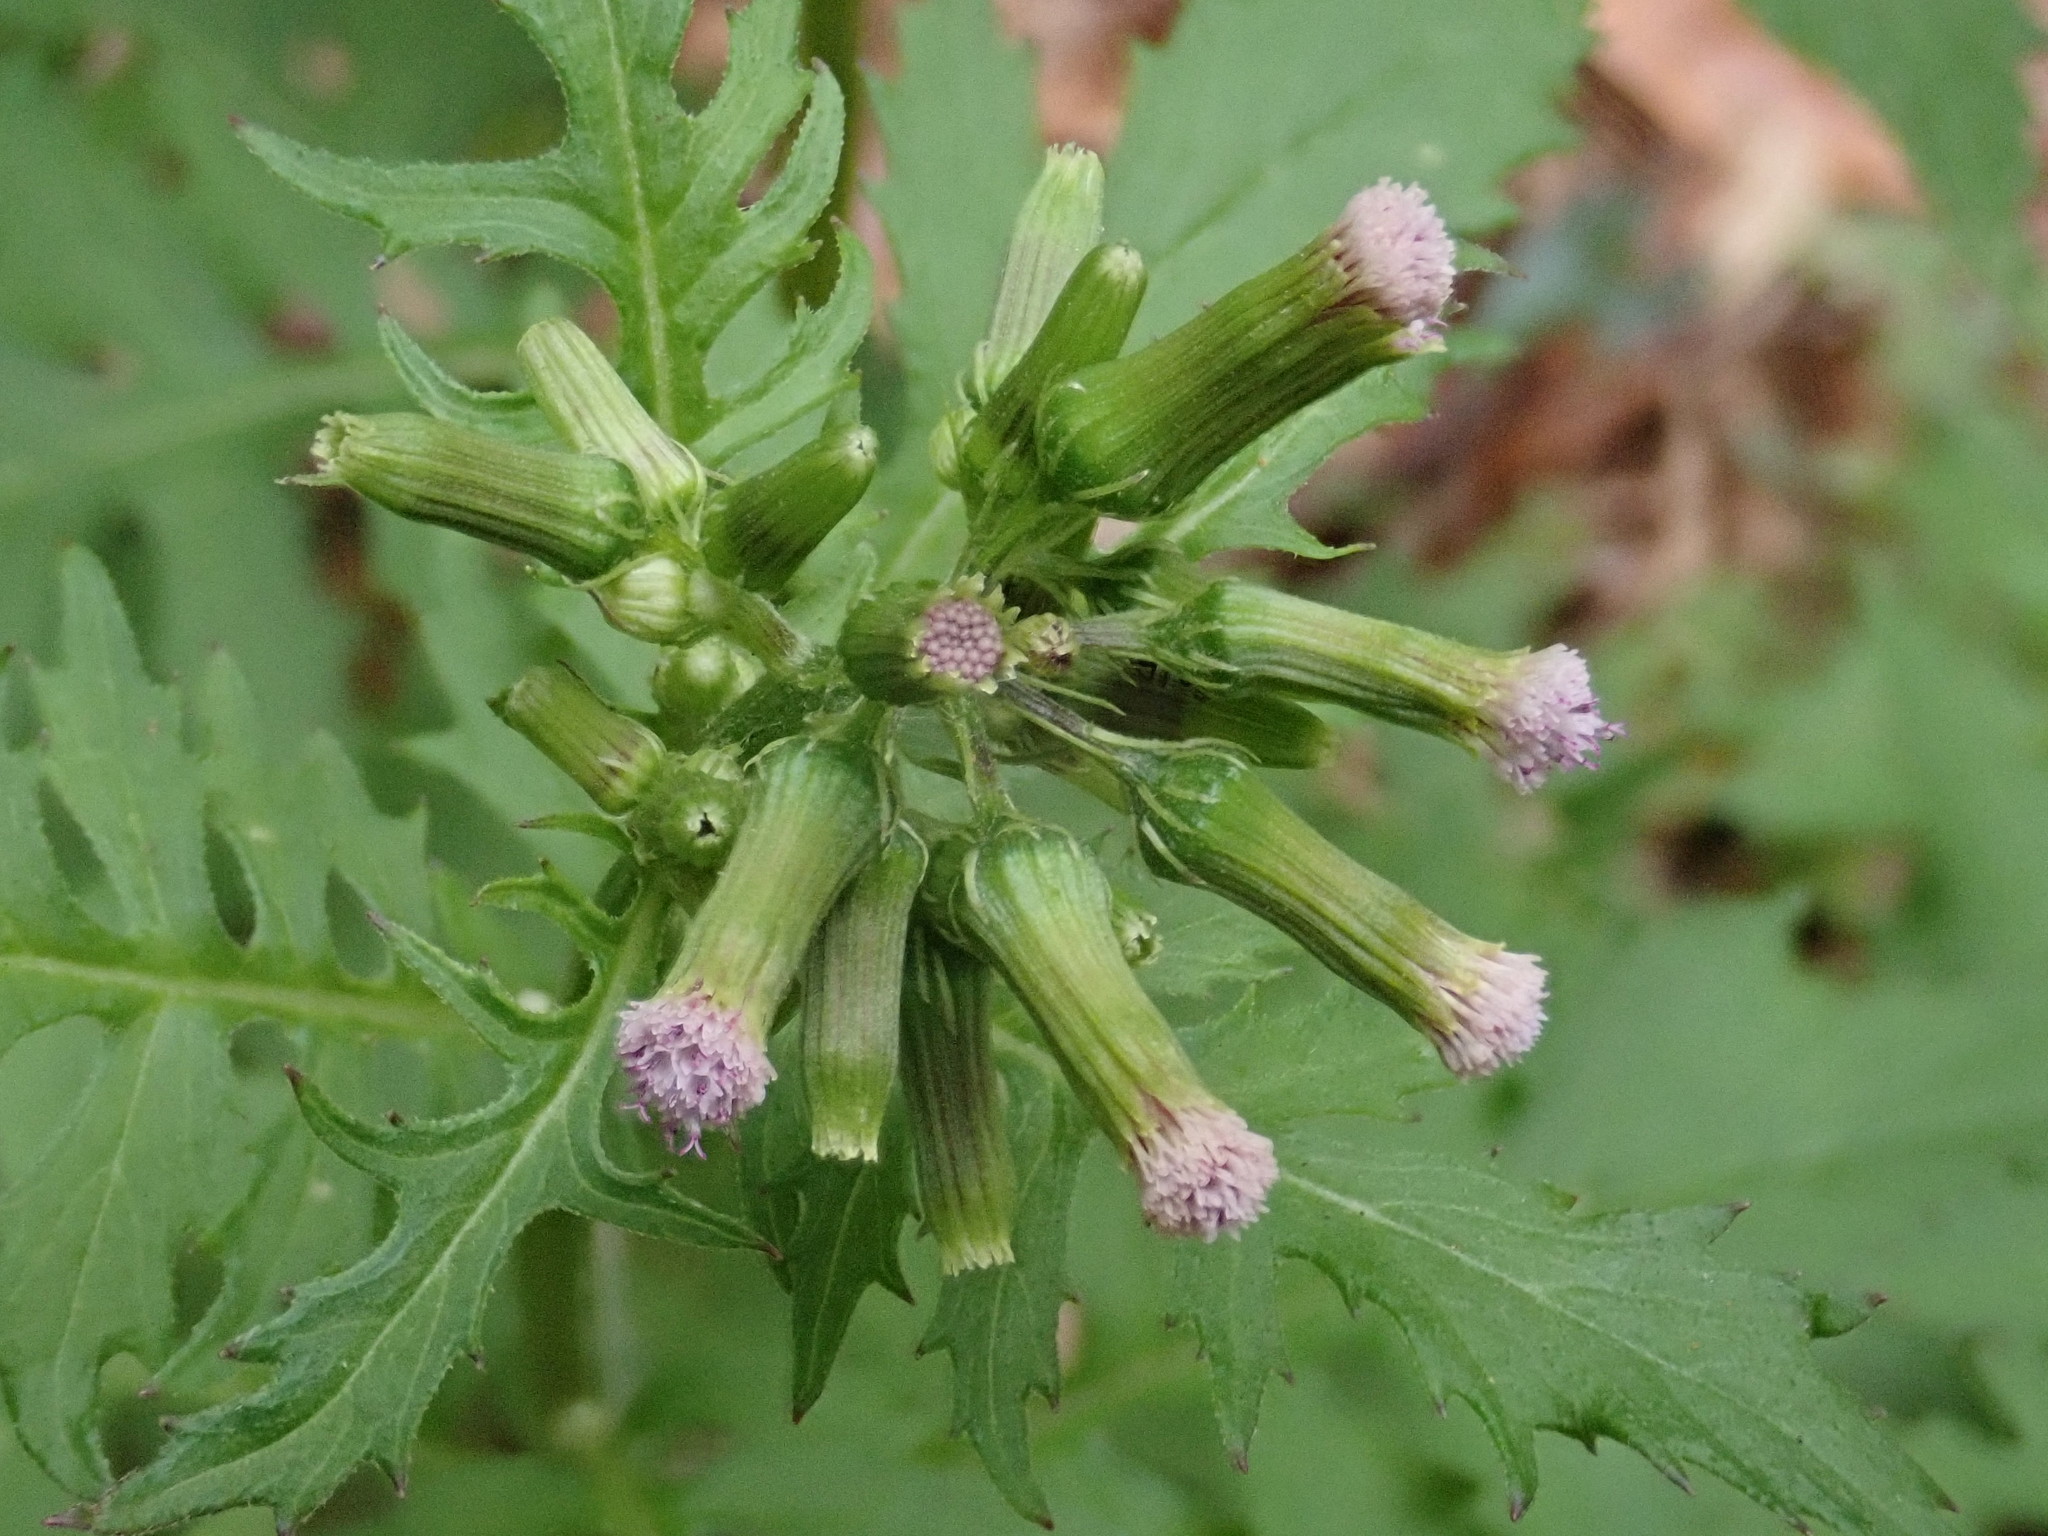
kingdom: Plantae
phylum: Tracheophyta
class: Magnoliopsida
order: Asterales
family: Asteraceae
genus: Erechtites
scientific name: Erechtites valerianifolius
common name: Tropical burnweed
